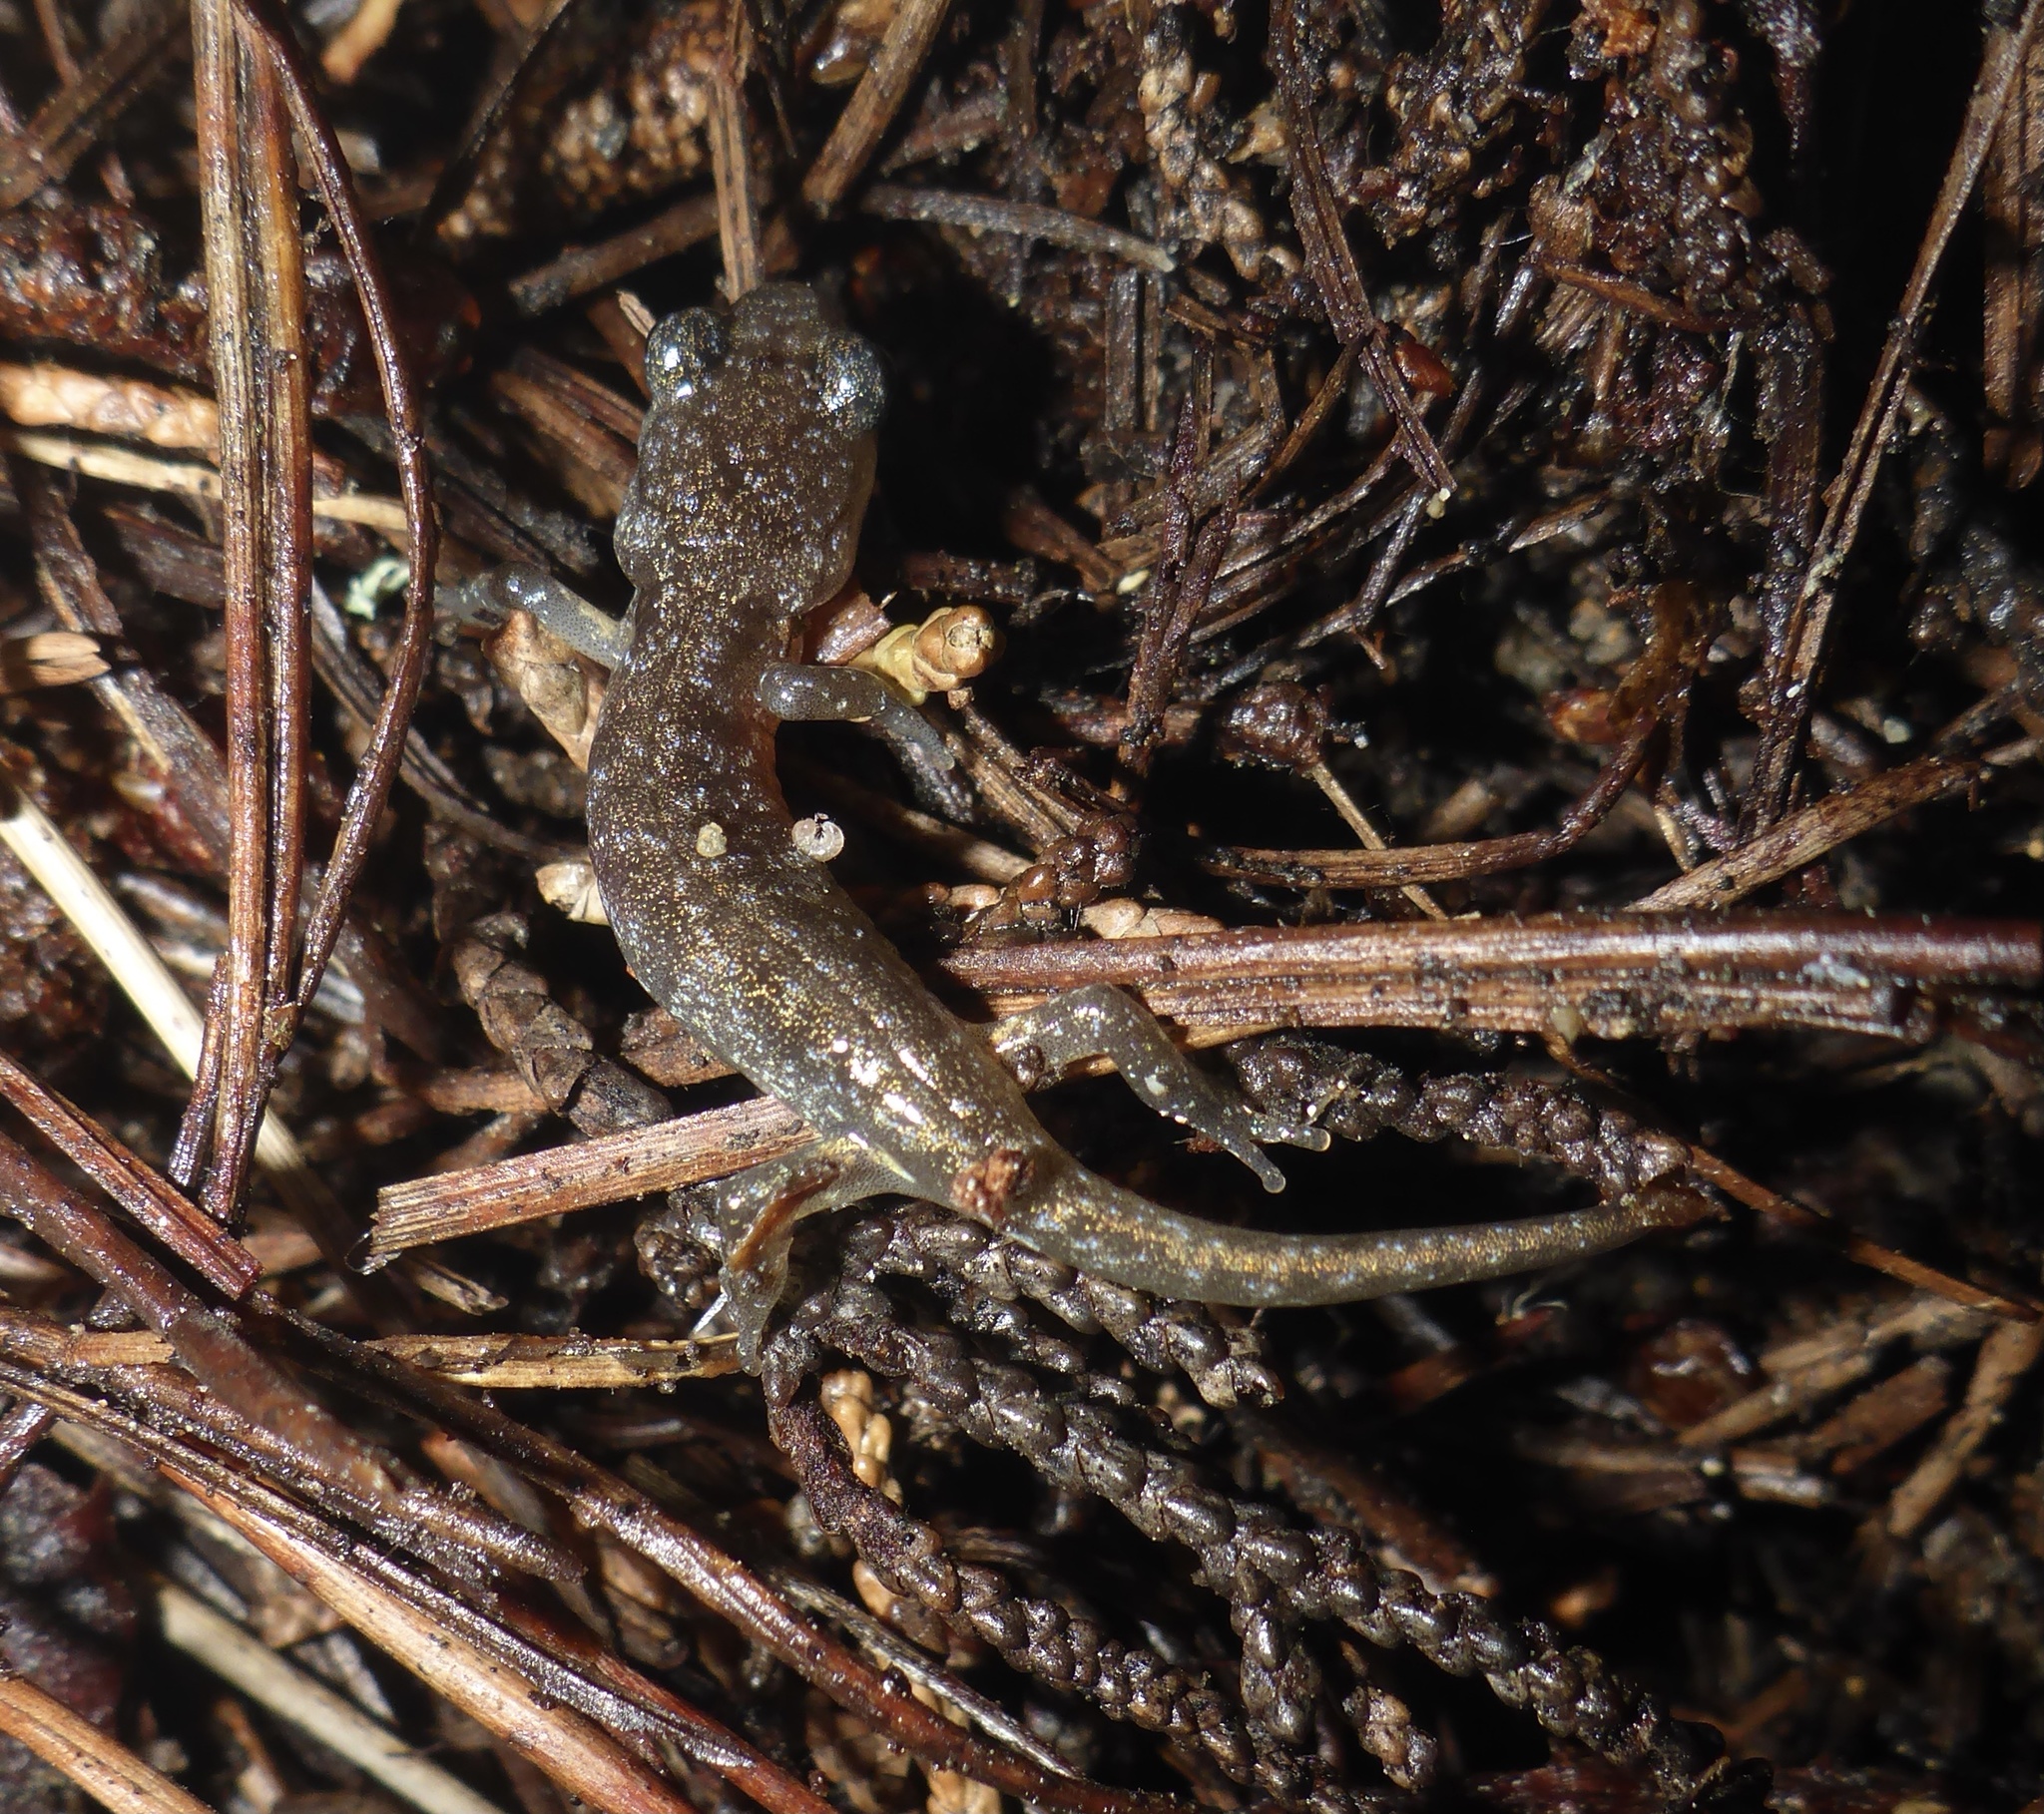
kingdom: Animalia
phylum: Chordata
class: Amphibia
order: Caudata
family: Plethodontidae
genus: Aneides
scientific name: Aneides lugubris
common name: Arboreal salamander
